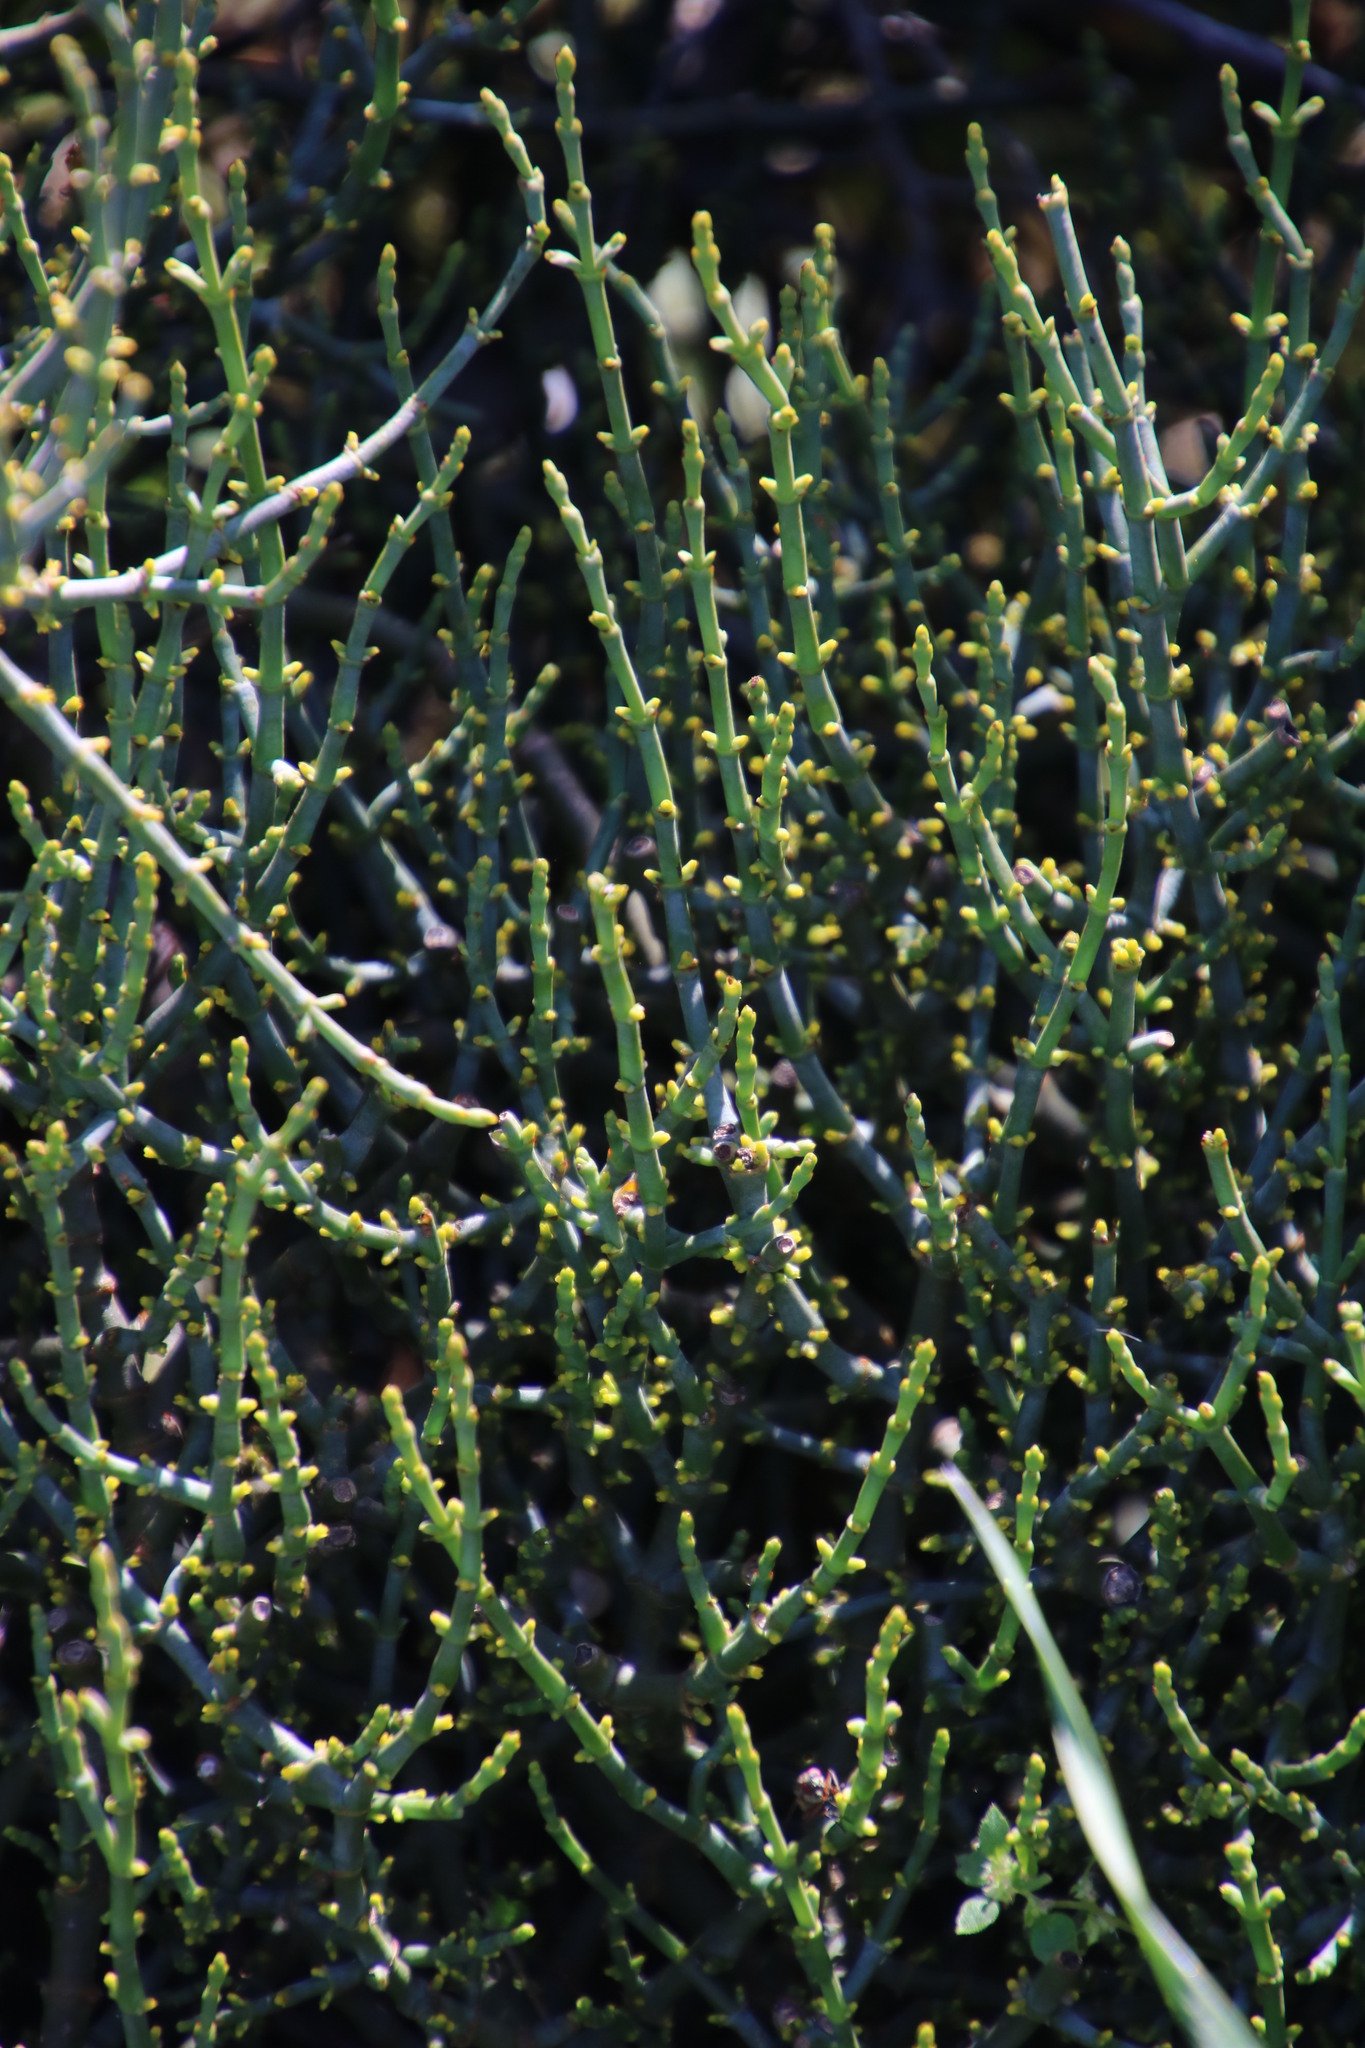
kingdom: Plantae
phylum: Tracheophyta
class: Magnoliopsida
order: Santalales
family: Viscaceae
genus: Viscum
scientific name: Viscum capense
